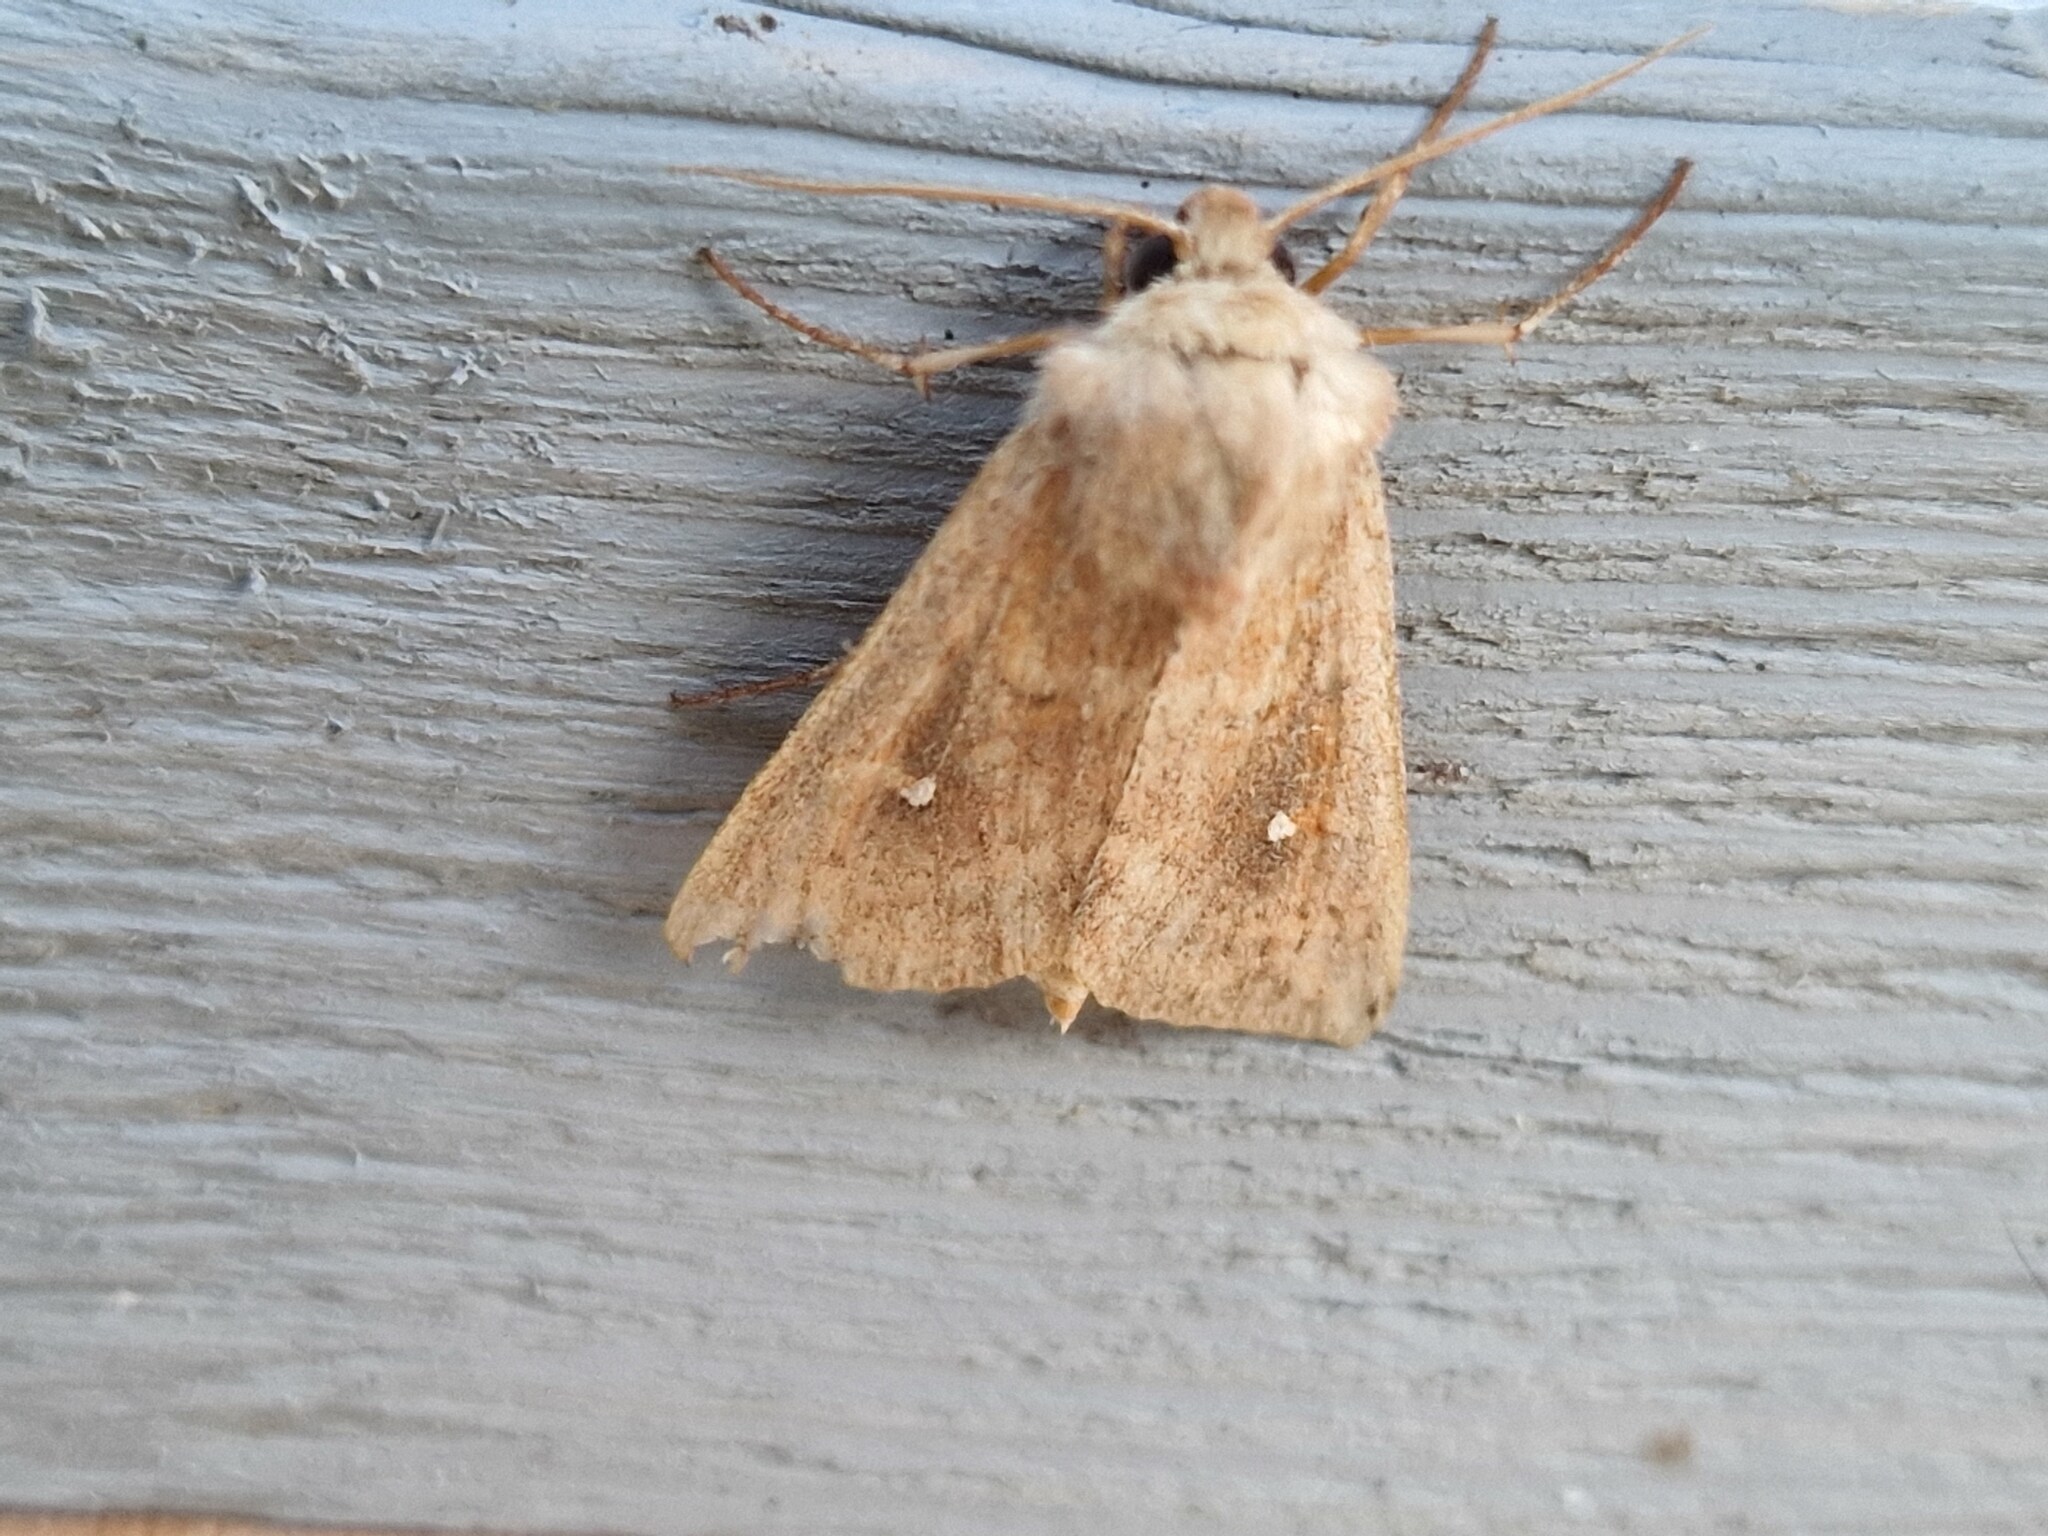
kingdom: Animalia
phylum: Arthropoda
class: Insecta
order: Lepidoptera
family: Noctuidae
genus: Mythimna
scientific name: Mythimna albipuncta
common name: White-point
